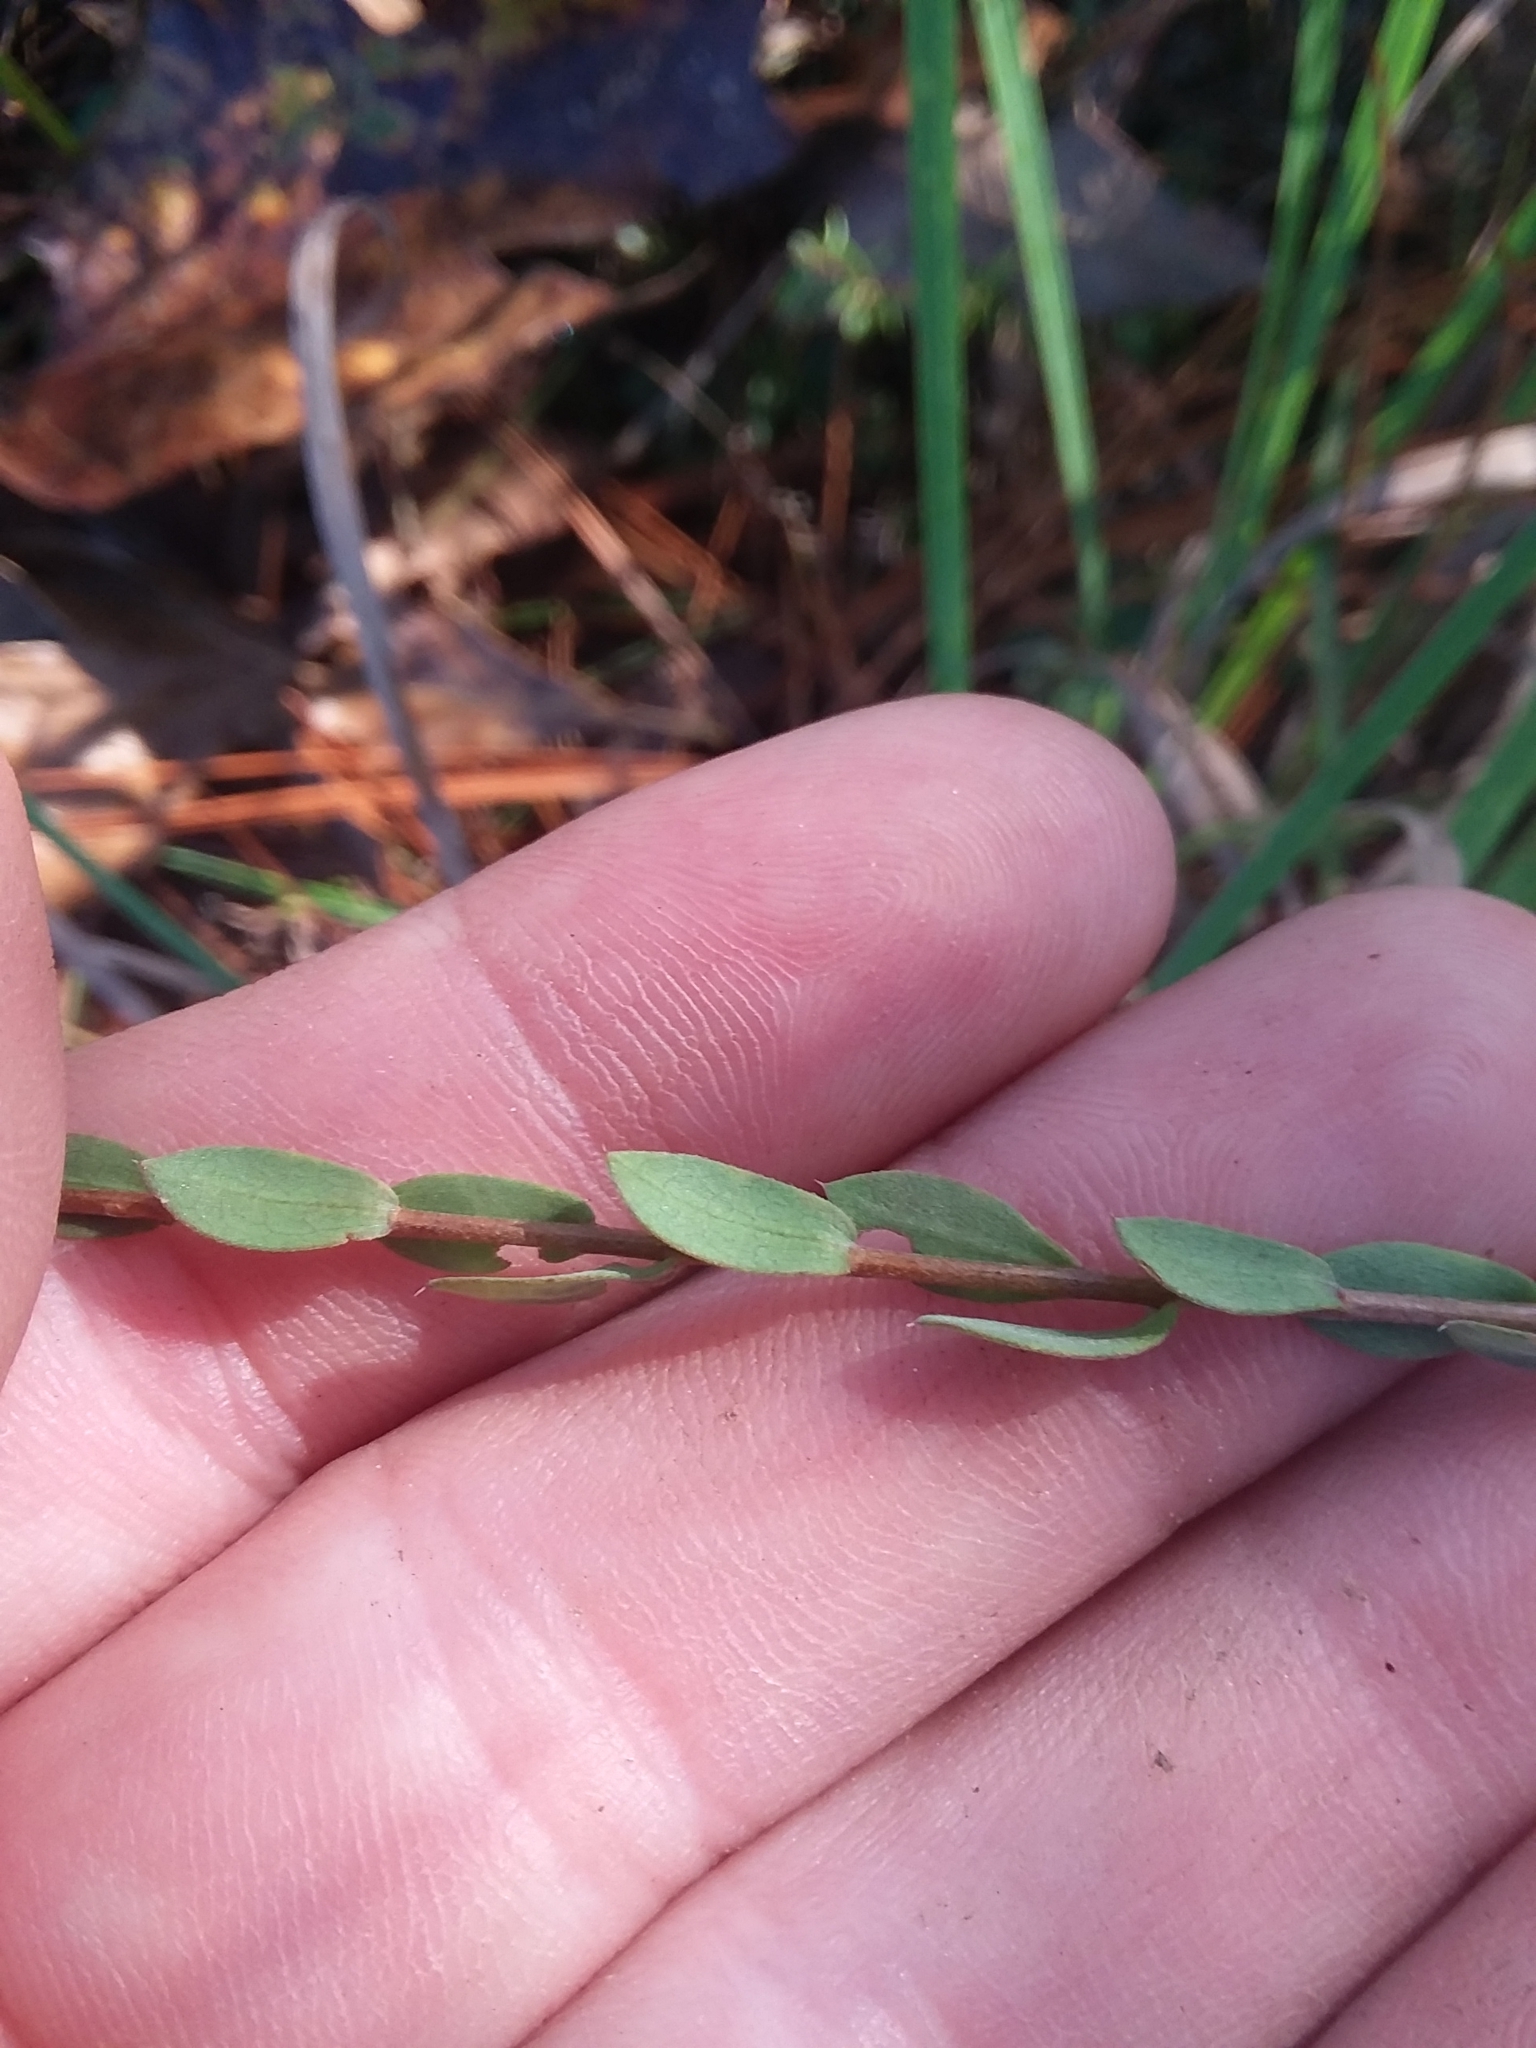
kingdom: Plantae
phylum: Tracheophyta
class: Magnoliopsida
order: Asterales
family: Asteraceae
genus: Symphyotrichum
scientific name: Symphyotrichum concolor
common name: Eastern silver aster
